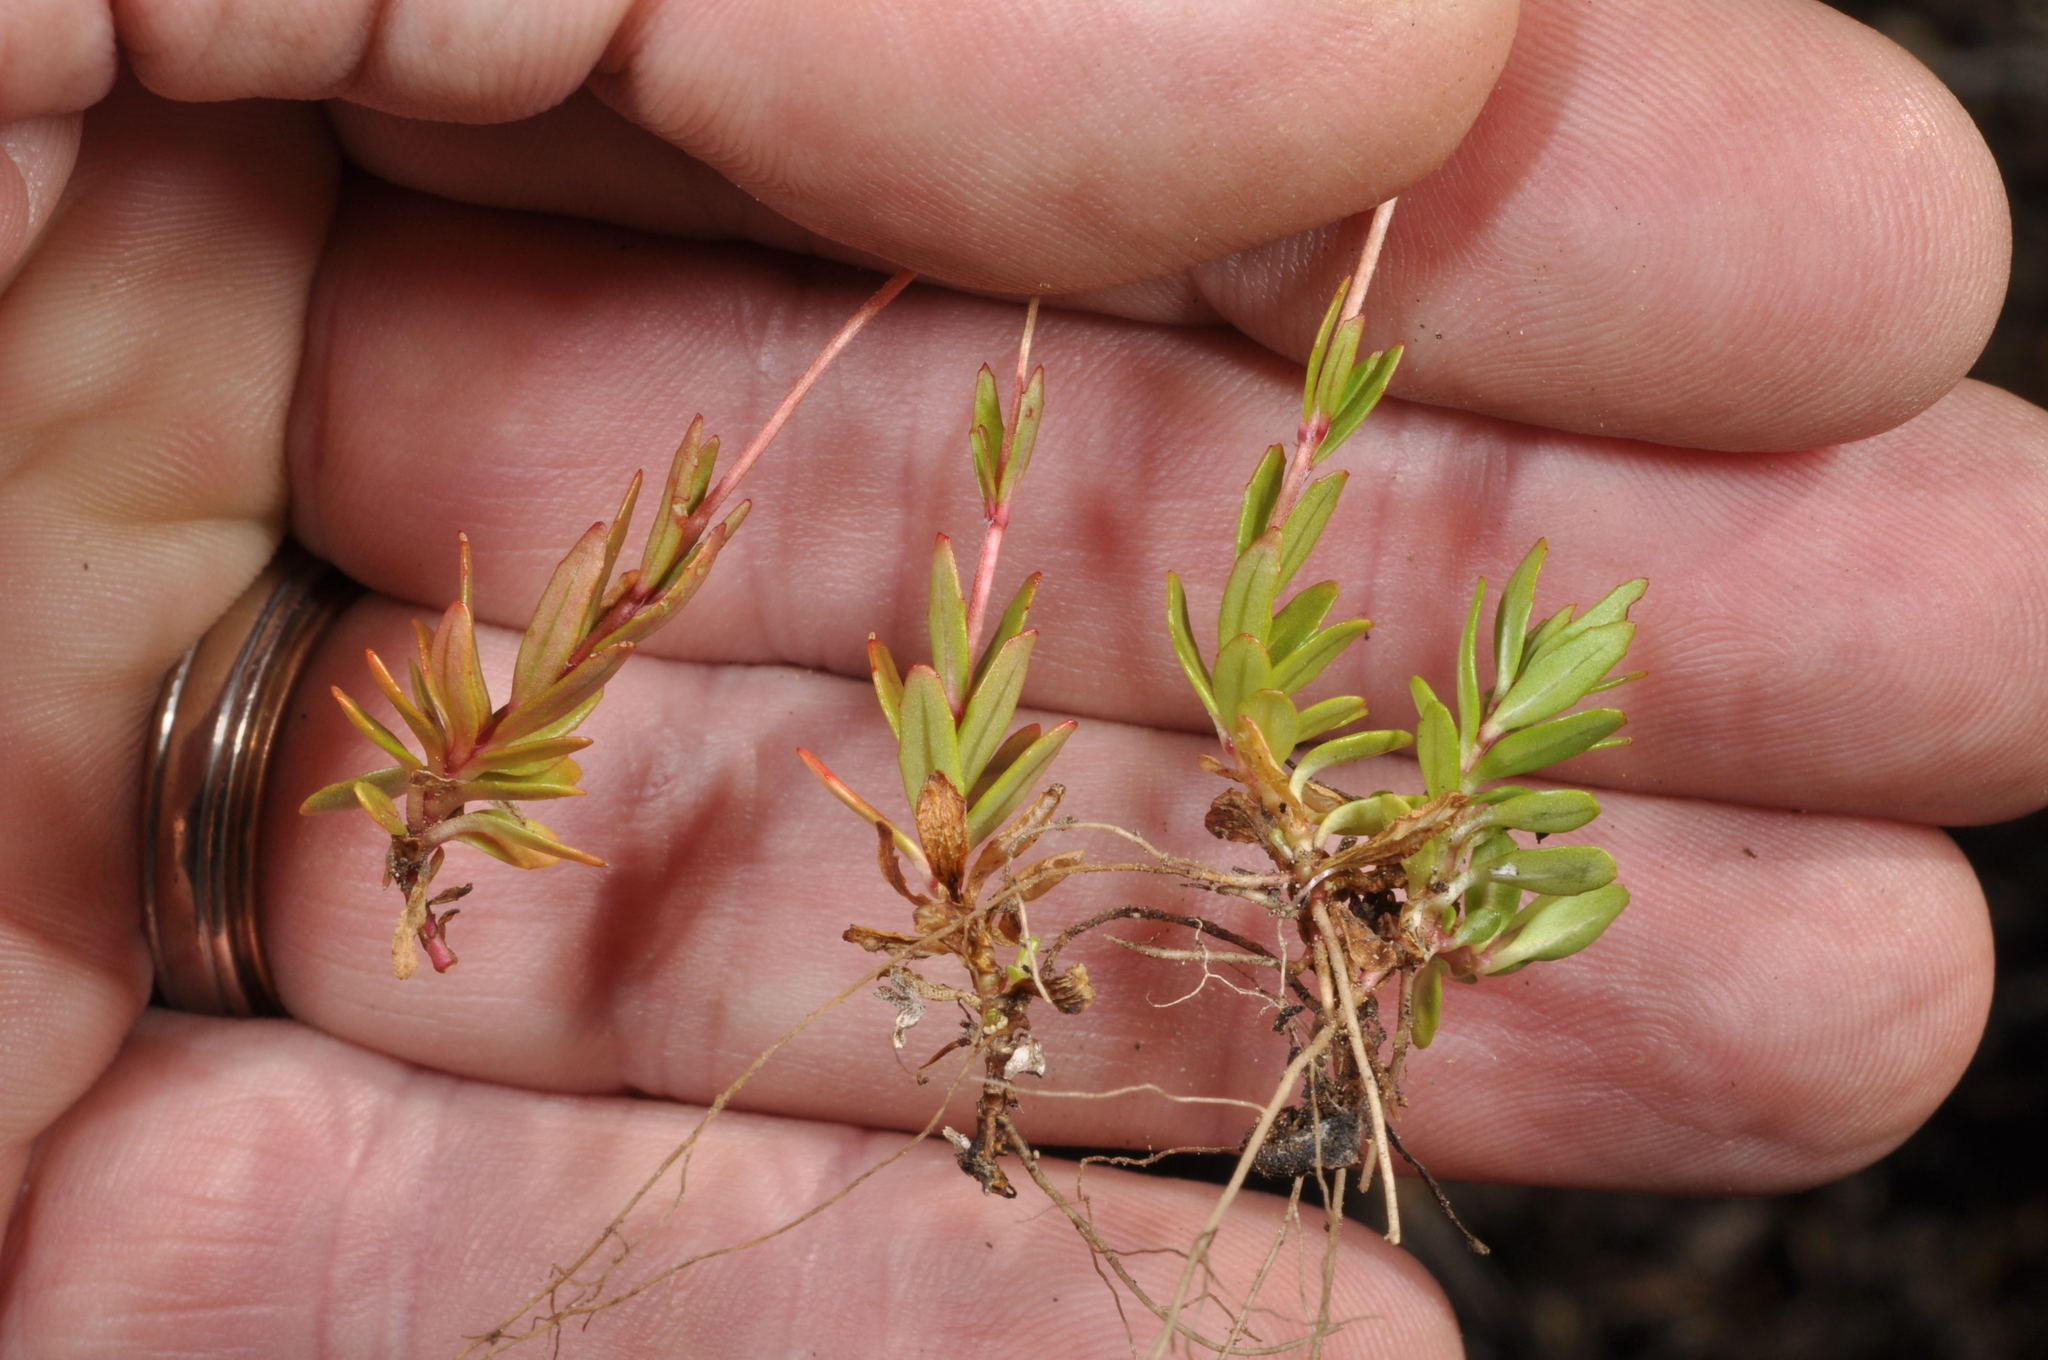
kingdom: Plantae
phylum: Tracheophyta
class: Magnoliopsida
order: Myrtales
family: Onagraceae
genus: Epilobium
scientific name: Epilobium alsinoides
